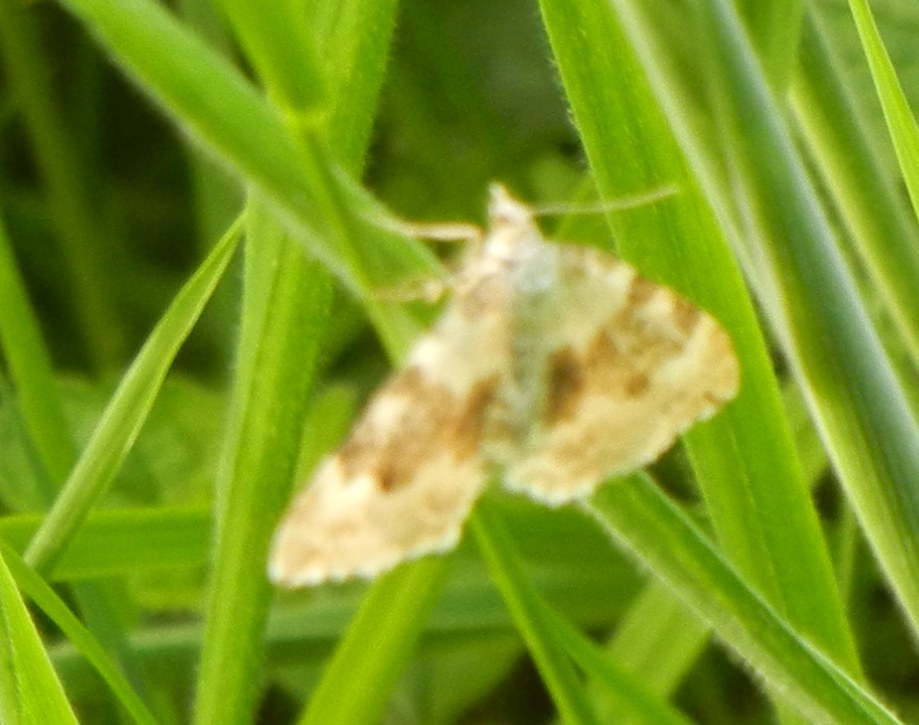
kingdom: Animalia
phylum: Arthropoda
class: Insecta
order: Lepidoptera
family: Geometridae
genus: Xanthorhoe
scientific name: Xanthorhoe montanata
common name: Silver-ground carpet
